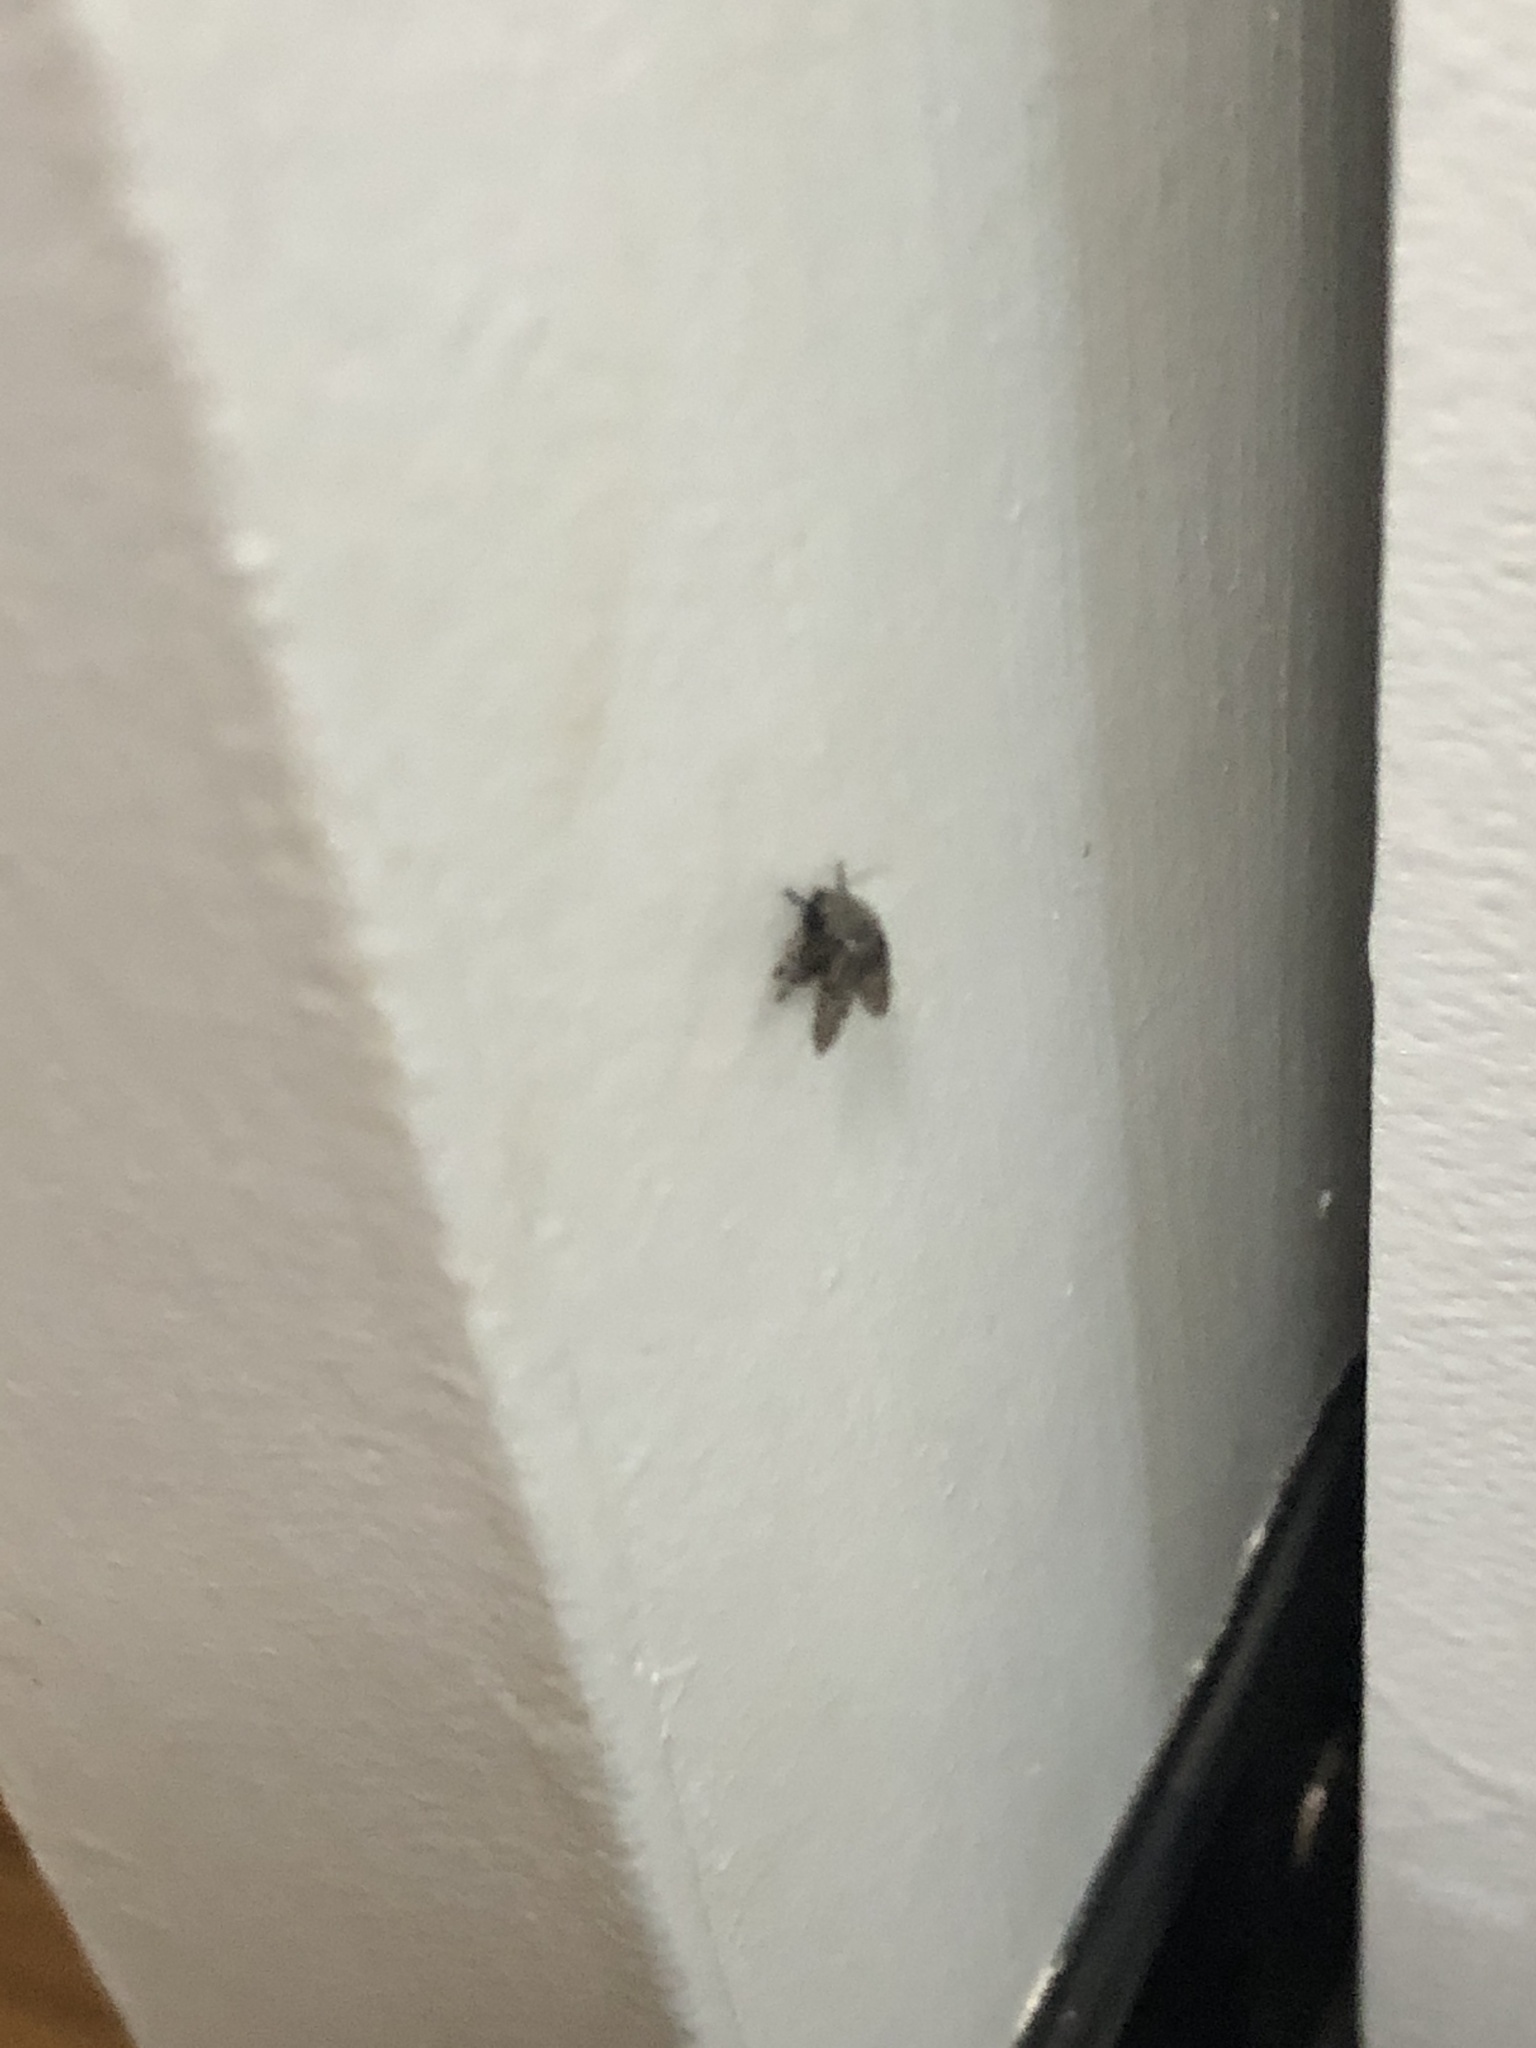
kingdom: Animalia
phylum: Arthropoda
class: Insecta
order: Diptera
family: Psychodidae
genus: Clogmia
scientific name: Clogmia albipunctatus
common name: White-spotted moth fly
